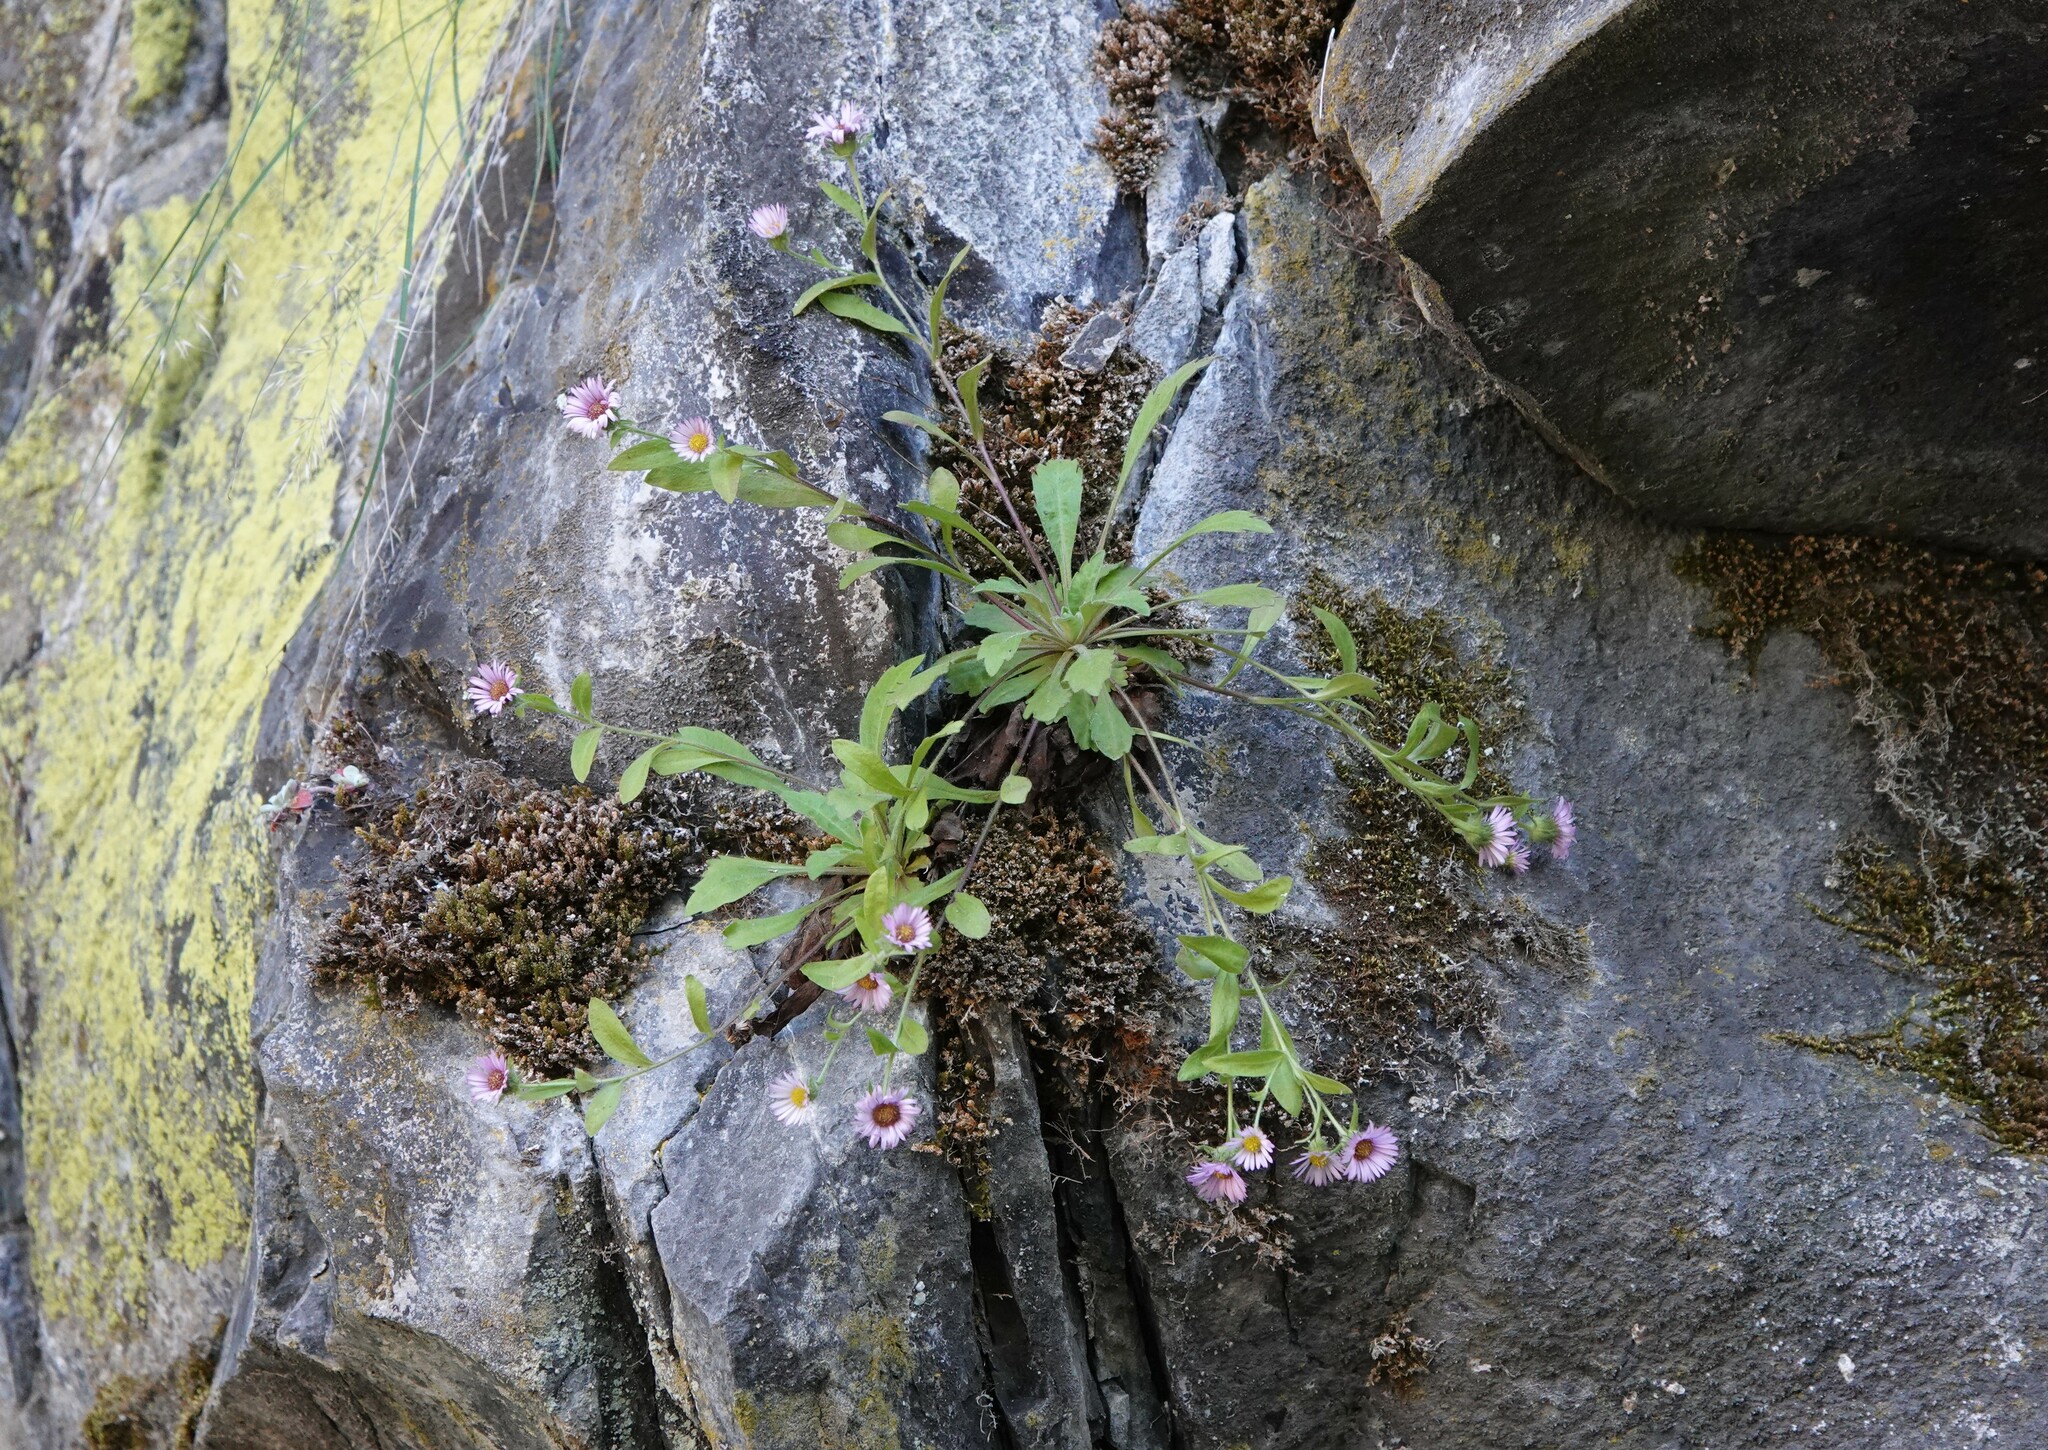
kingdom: Plantae
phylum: Tracheophyta
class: Magnoliopsida
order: Asterales
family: Asteraceae
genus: Erigeron
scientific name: Erigeron oreganus
